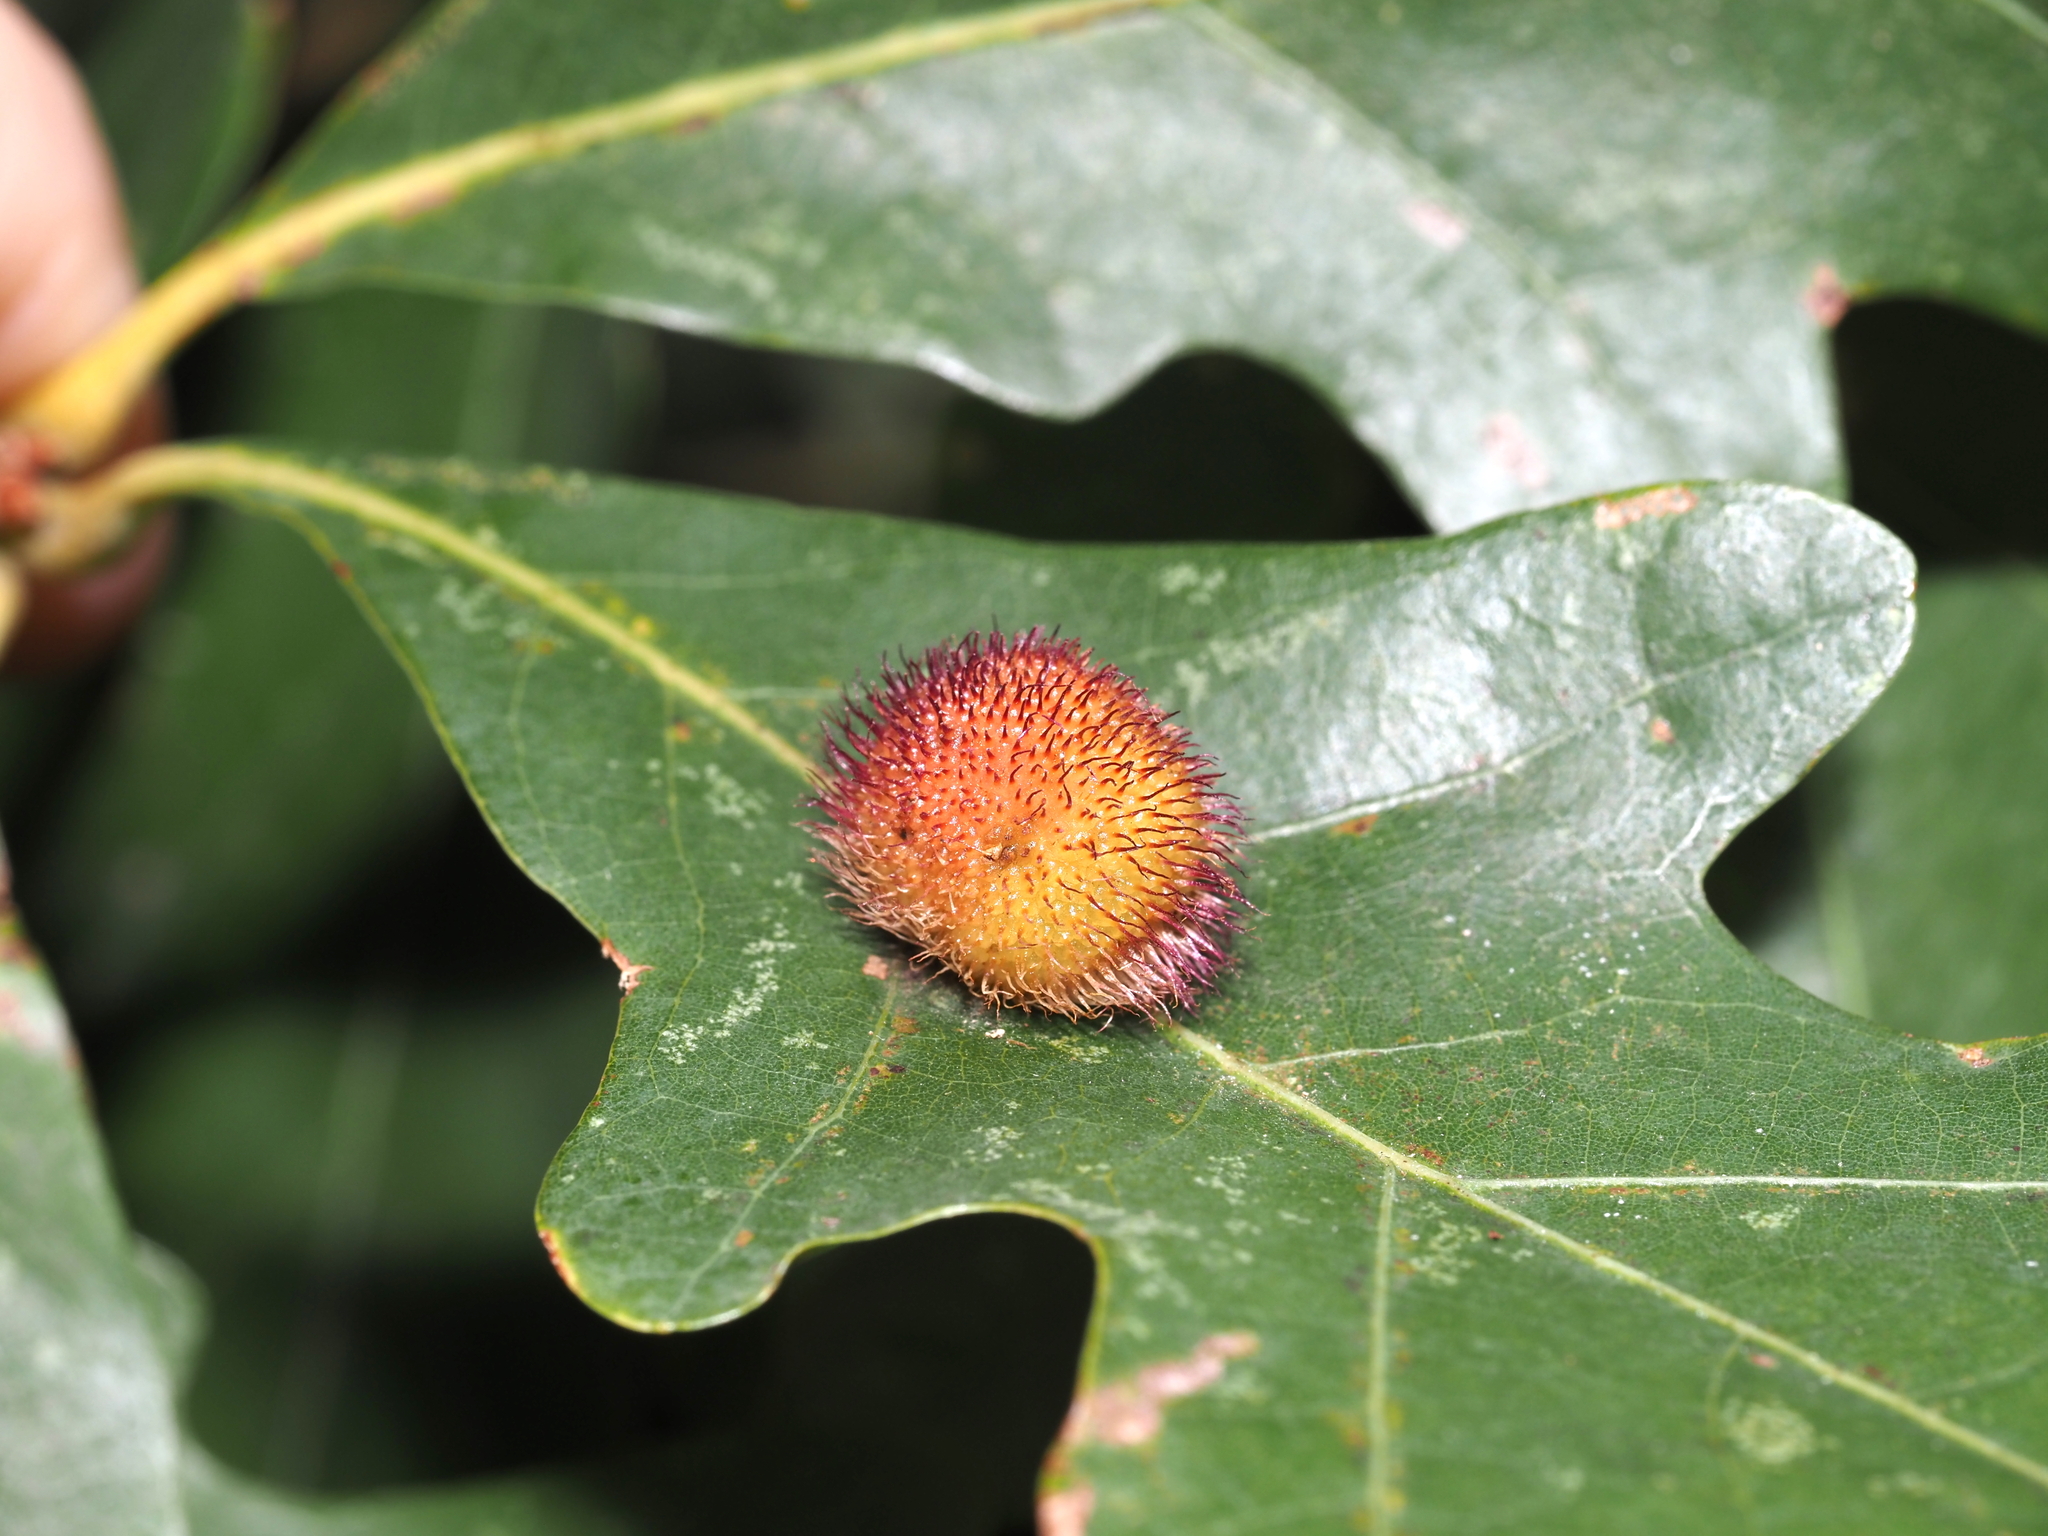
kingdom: Animalia
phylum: Arthropoda
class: Insecta
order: Hymenoptera
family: Cynipidae
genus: Acraspis
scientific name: Acraspis erinacei
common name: Hedgehog gall wasp
